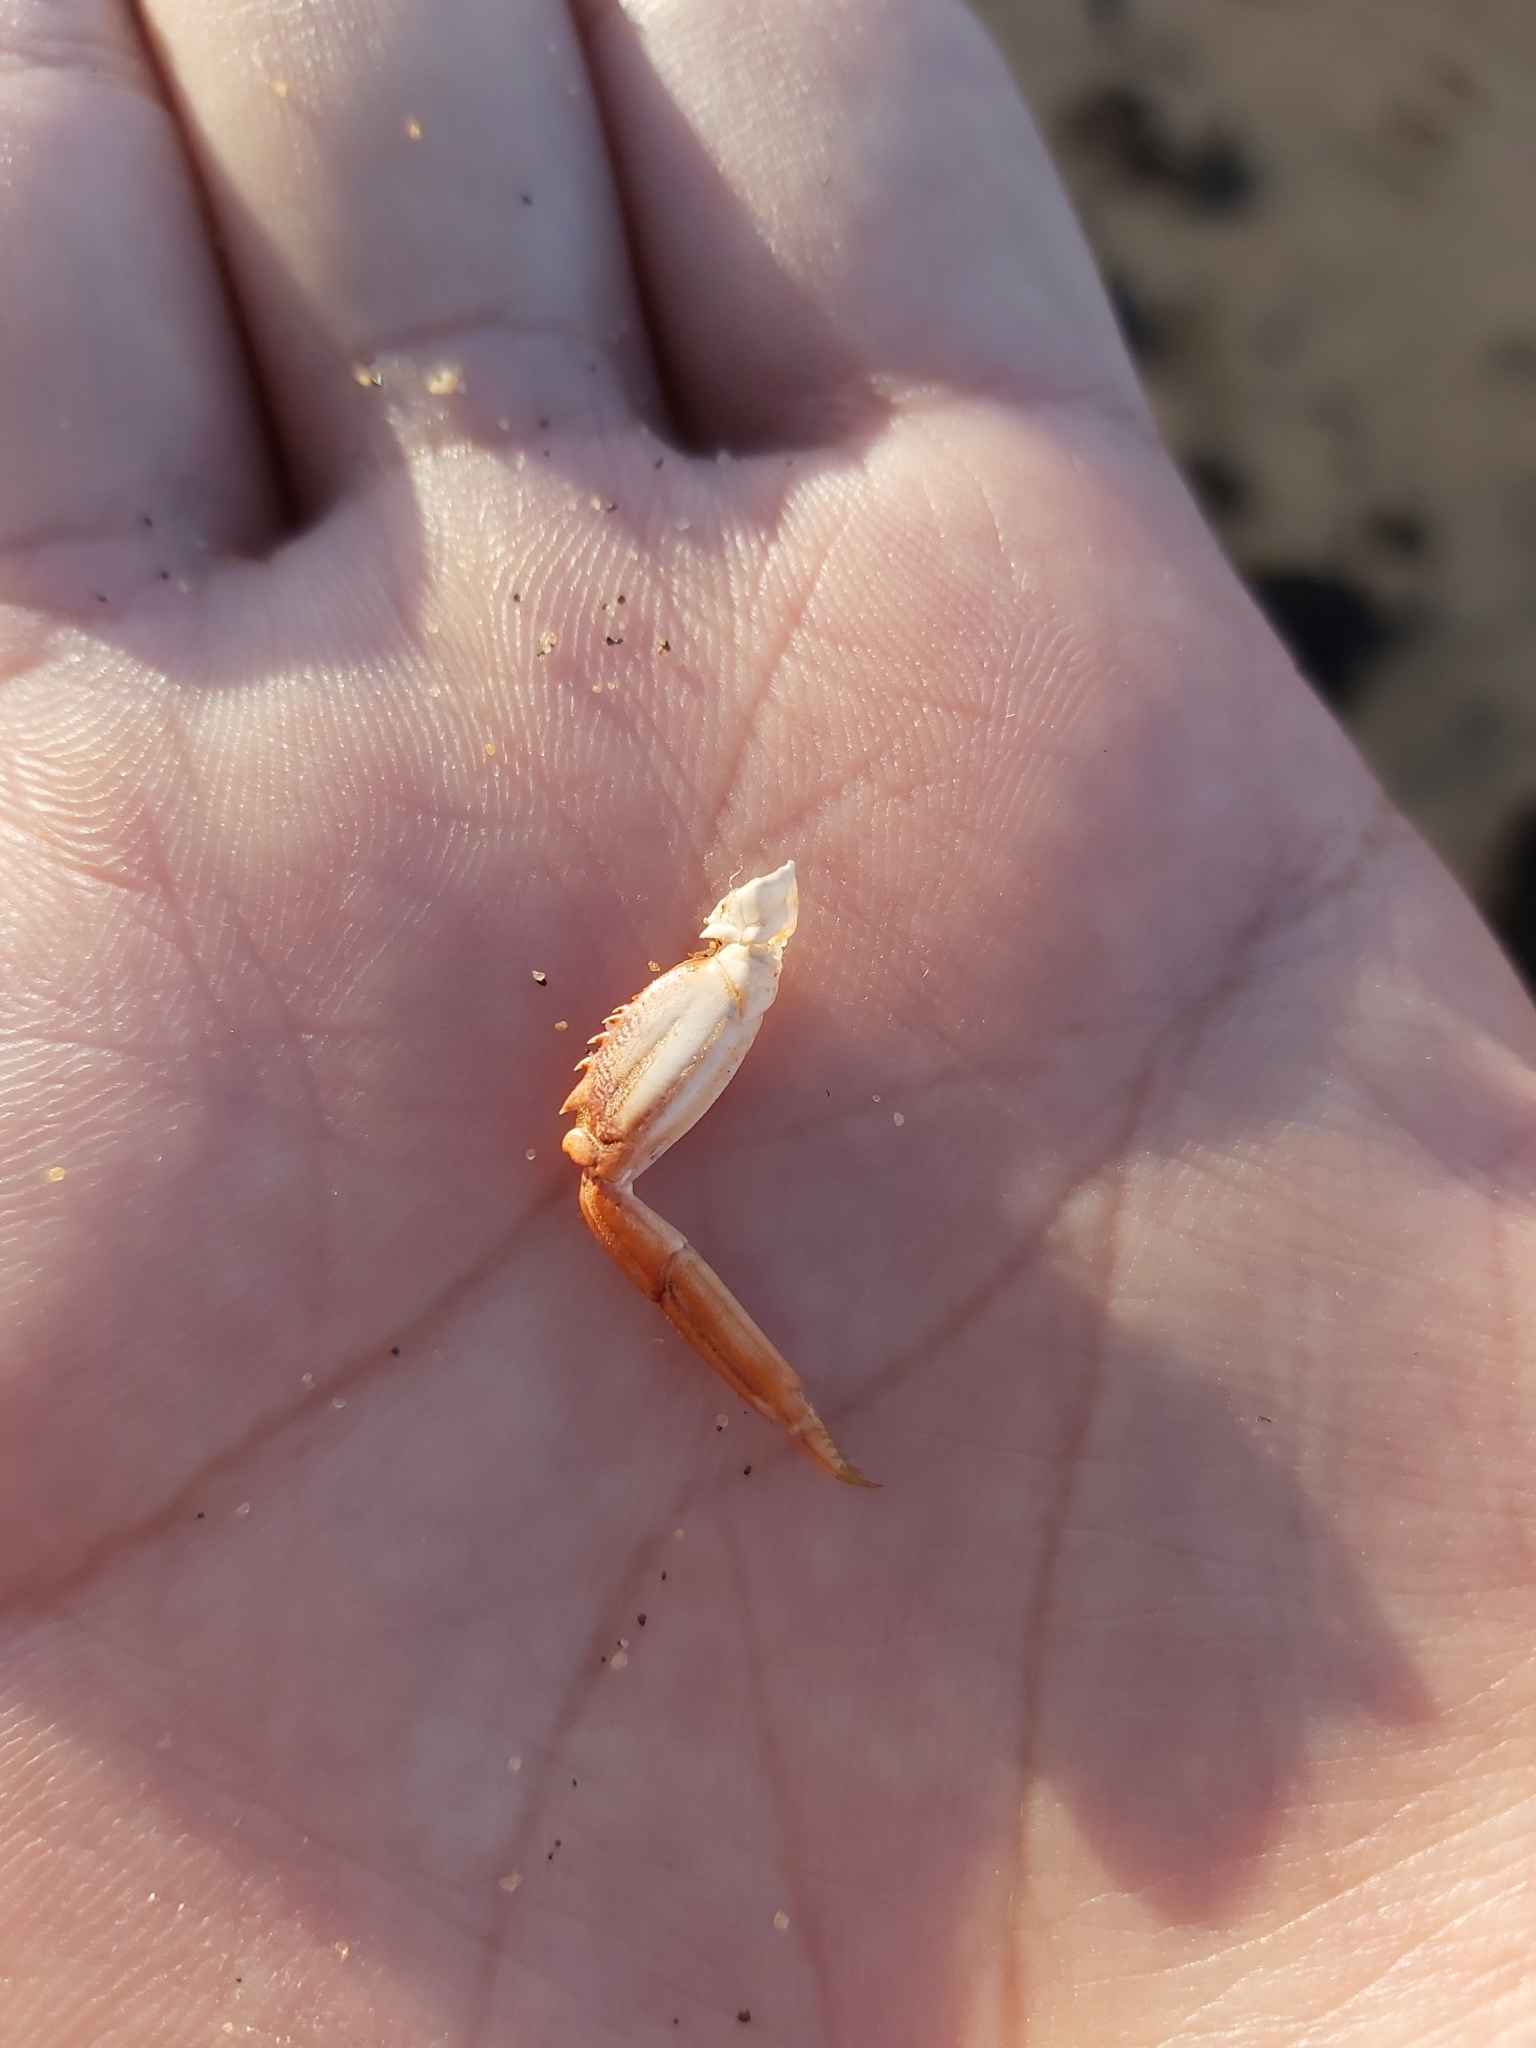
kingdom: Animalia
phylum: Arthropoda
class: Malacostraca
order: Decapoda
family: Plagusiidae
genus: Guinusia
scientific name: Guinusia chabrus
